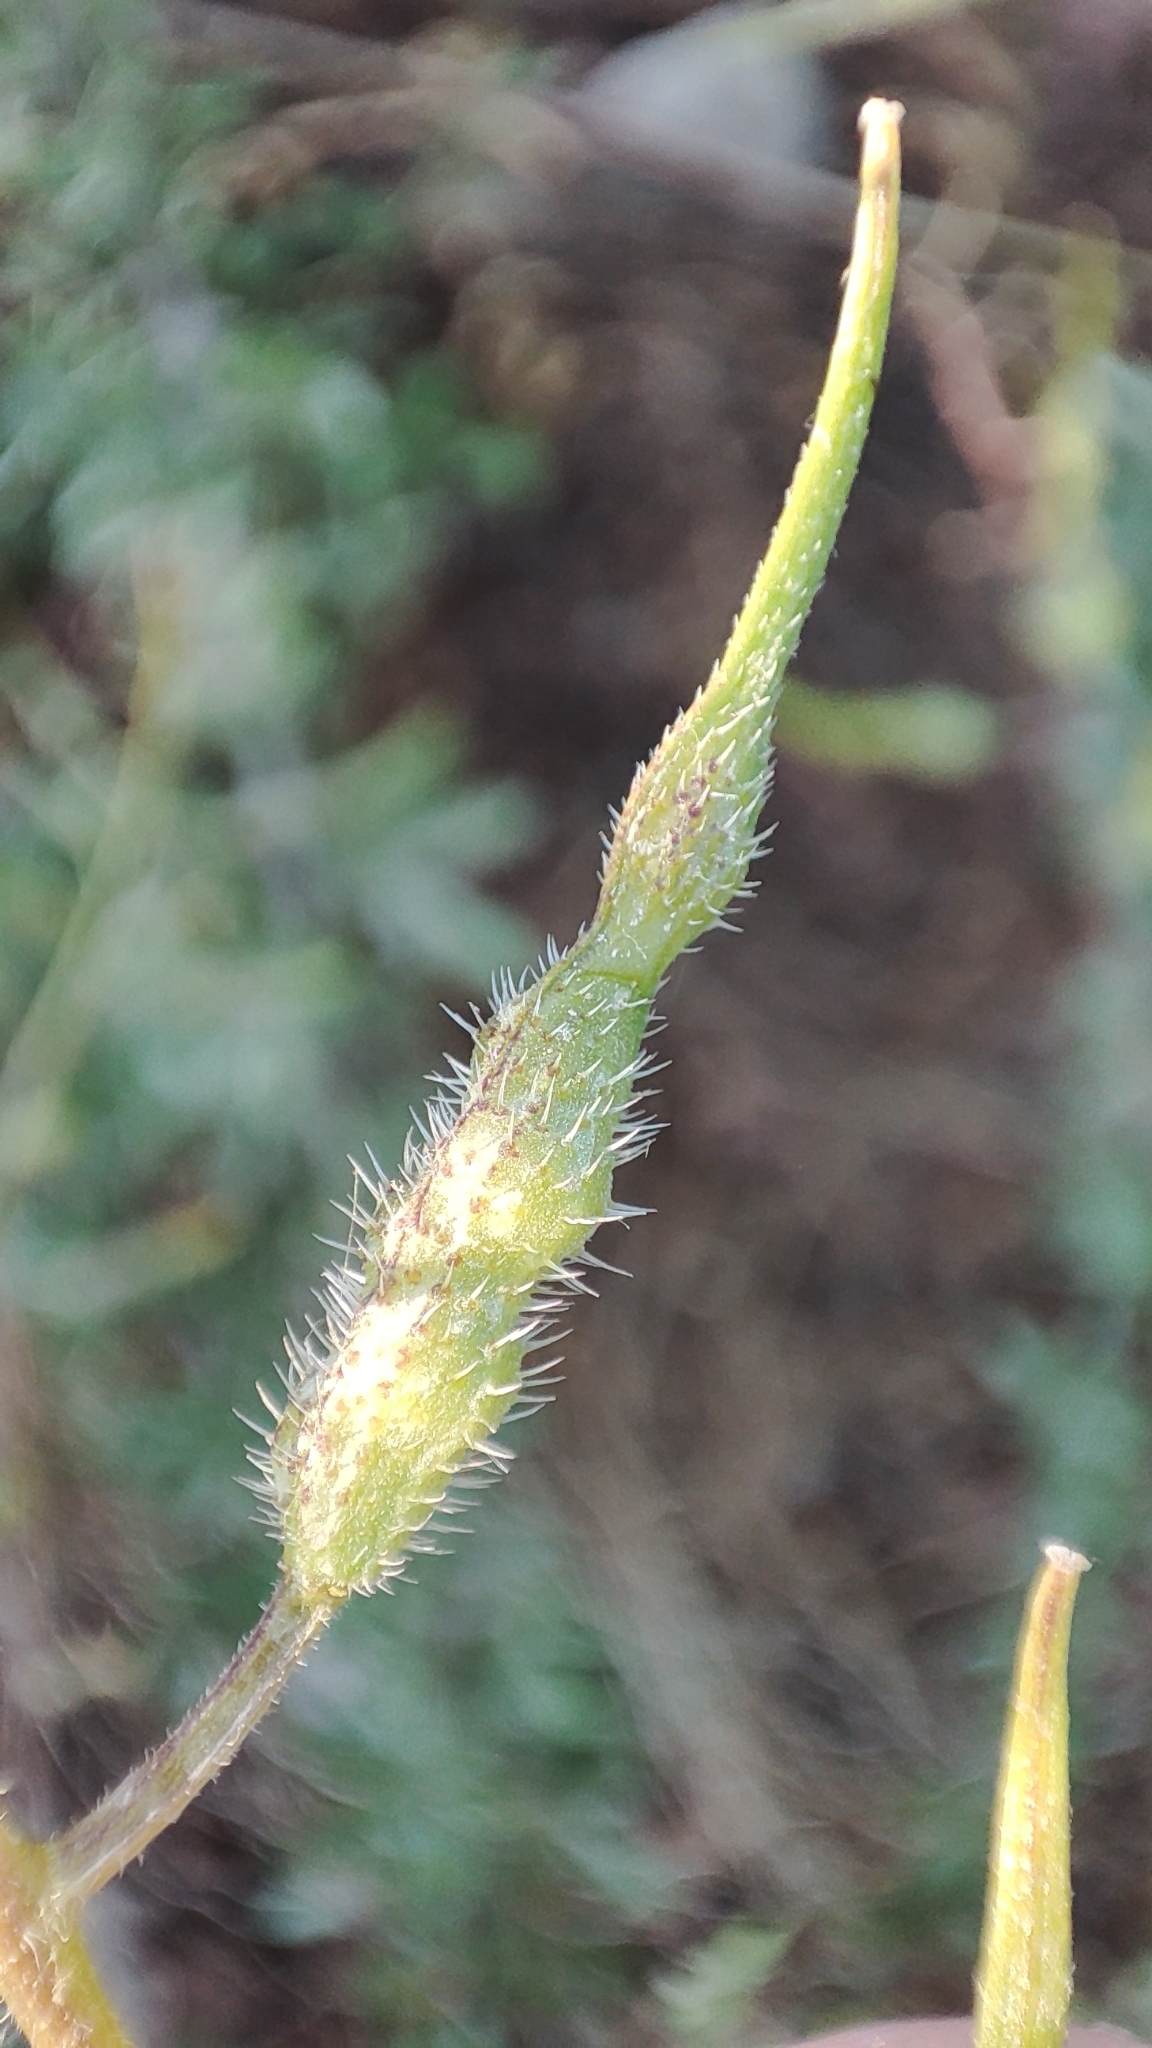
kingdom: Plantae
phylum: Tracheophyta
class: Magnoliopsida
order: Brassicales
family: Brassicaceae
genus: Sinapis
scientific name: Sinapis alba
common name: White mustard
